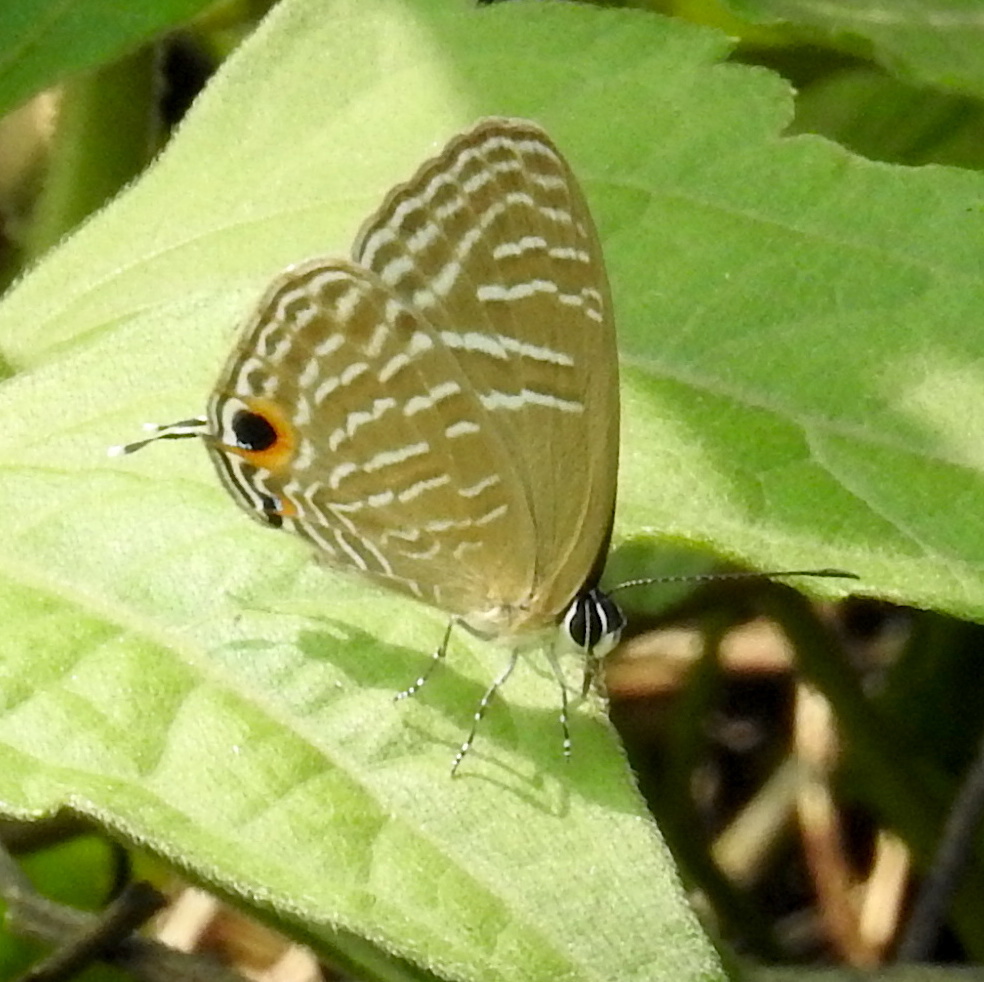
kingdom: Animalia
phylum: Arthropoda
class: Insecta
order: Lepidoptera
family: Lycaenidae
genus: Jamides
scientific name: Jamides elpis
